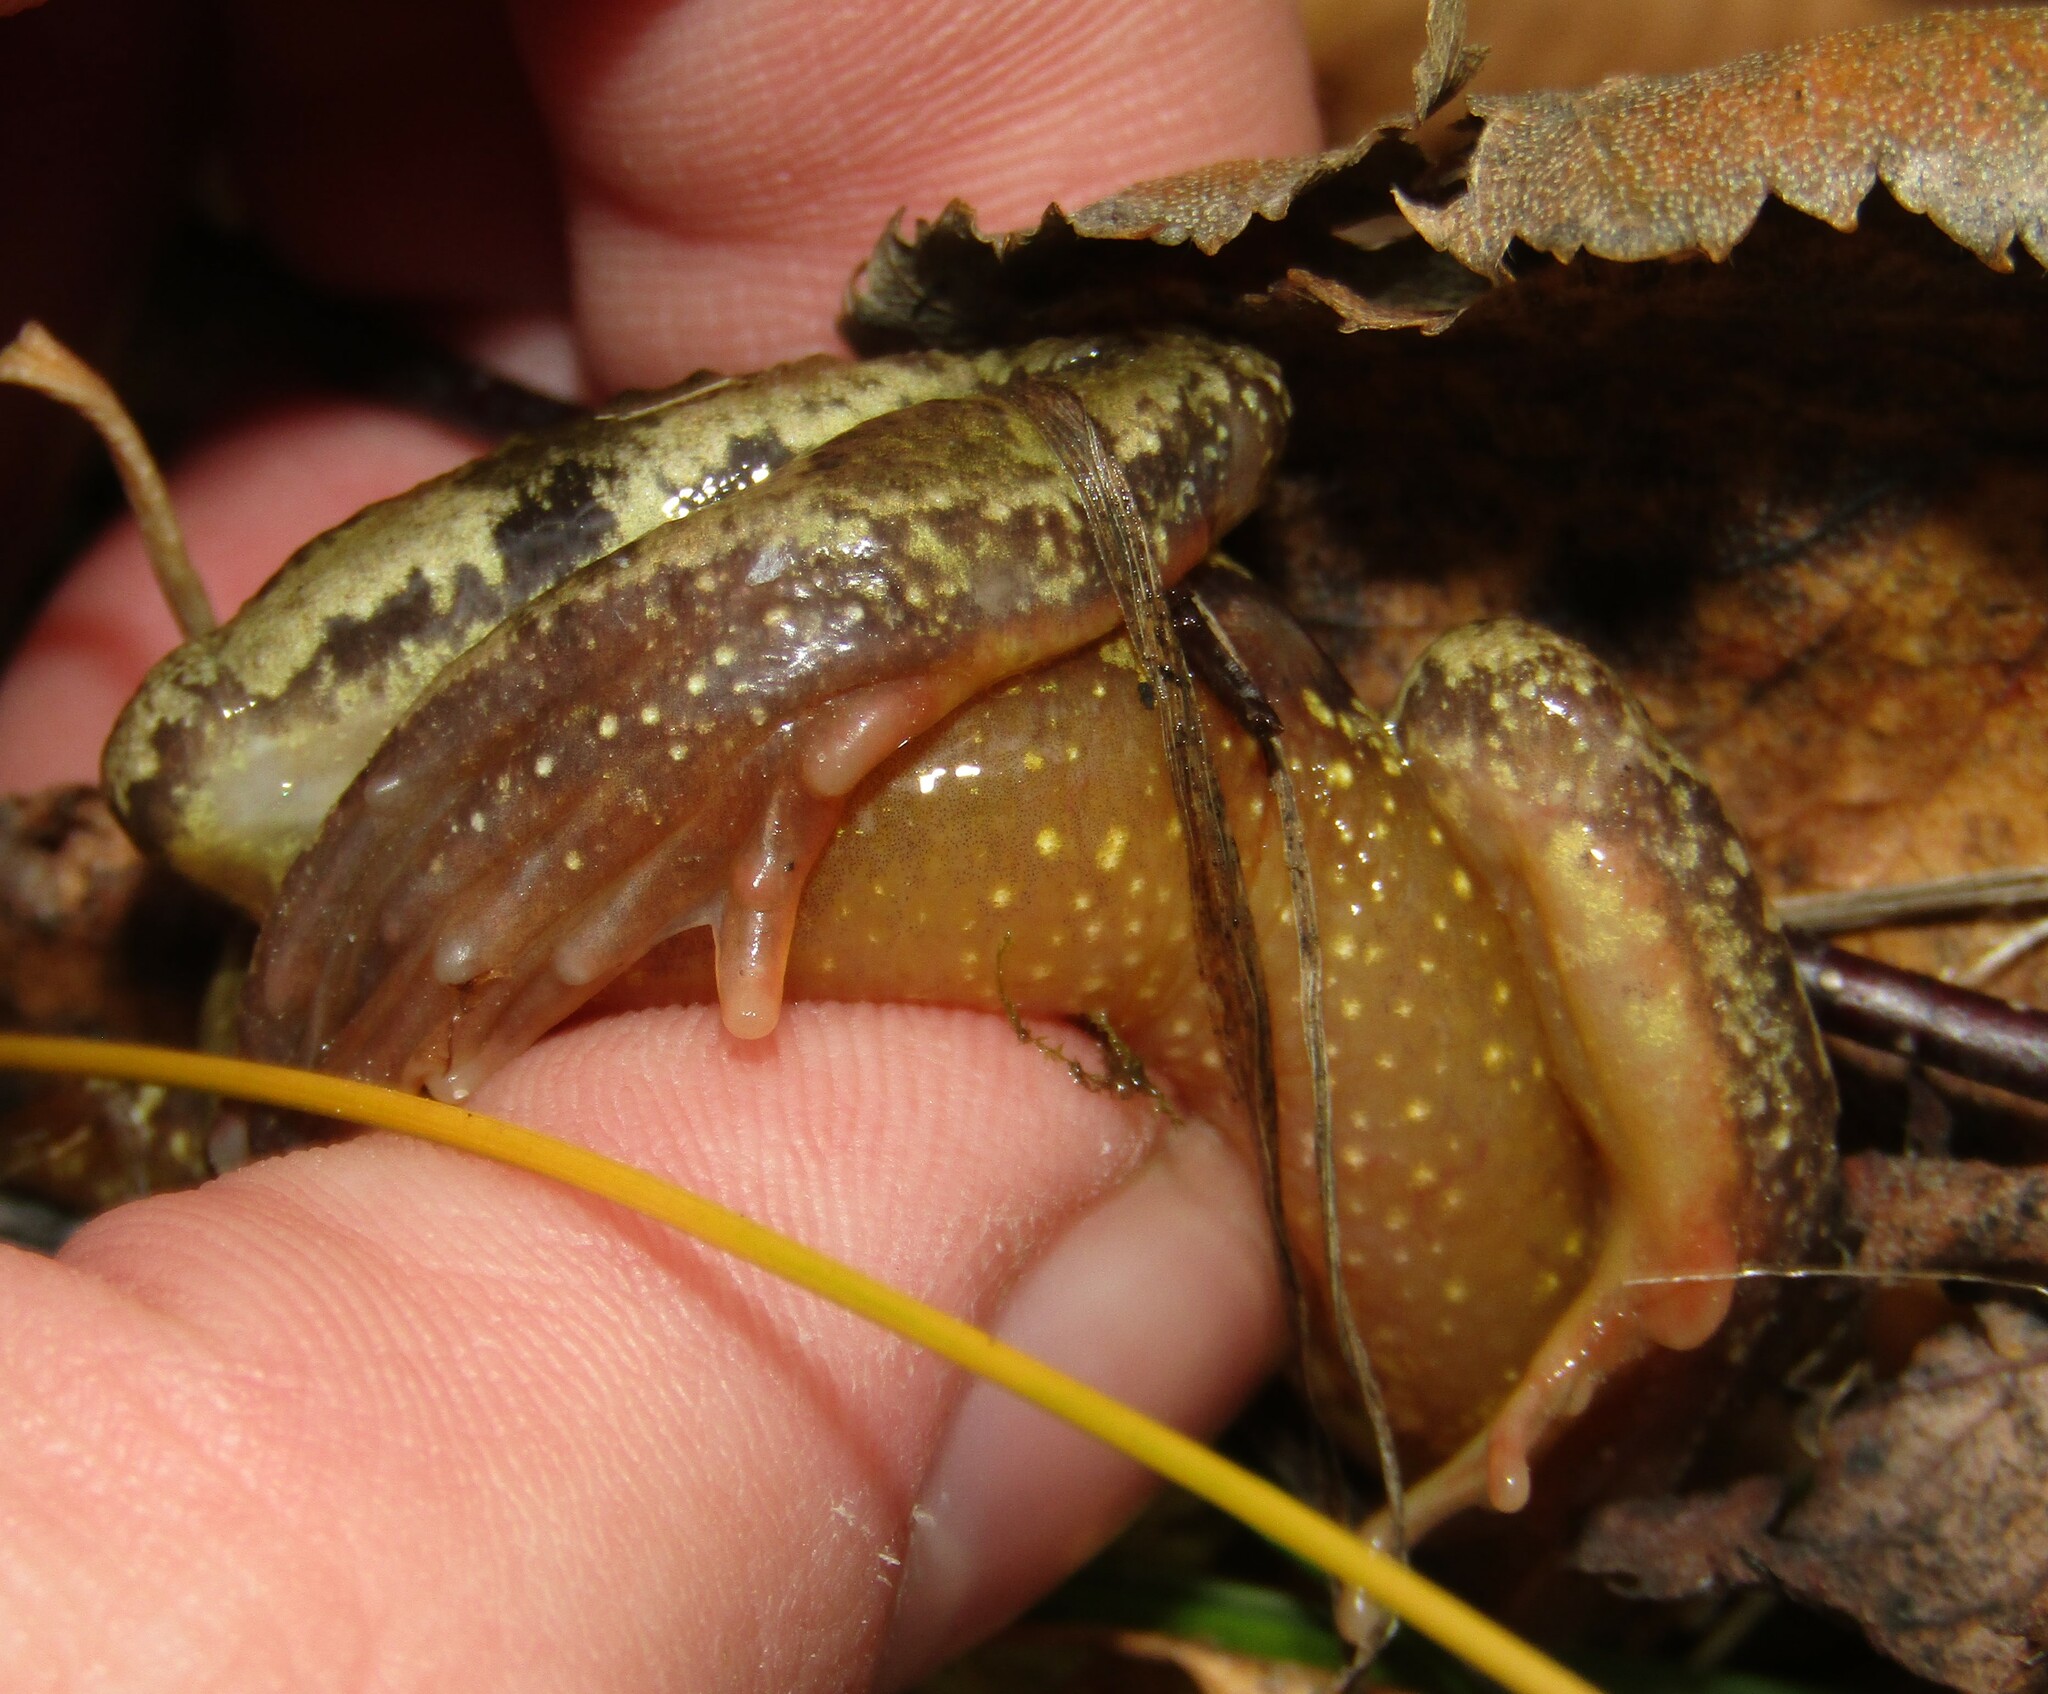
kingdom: Animalia
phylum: Chordata
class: Amphibia
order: Anura
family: Ranidae
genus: Rana
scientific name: Rana temporaria
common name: Common frog
